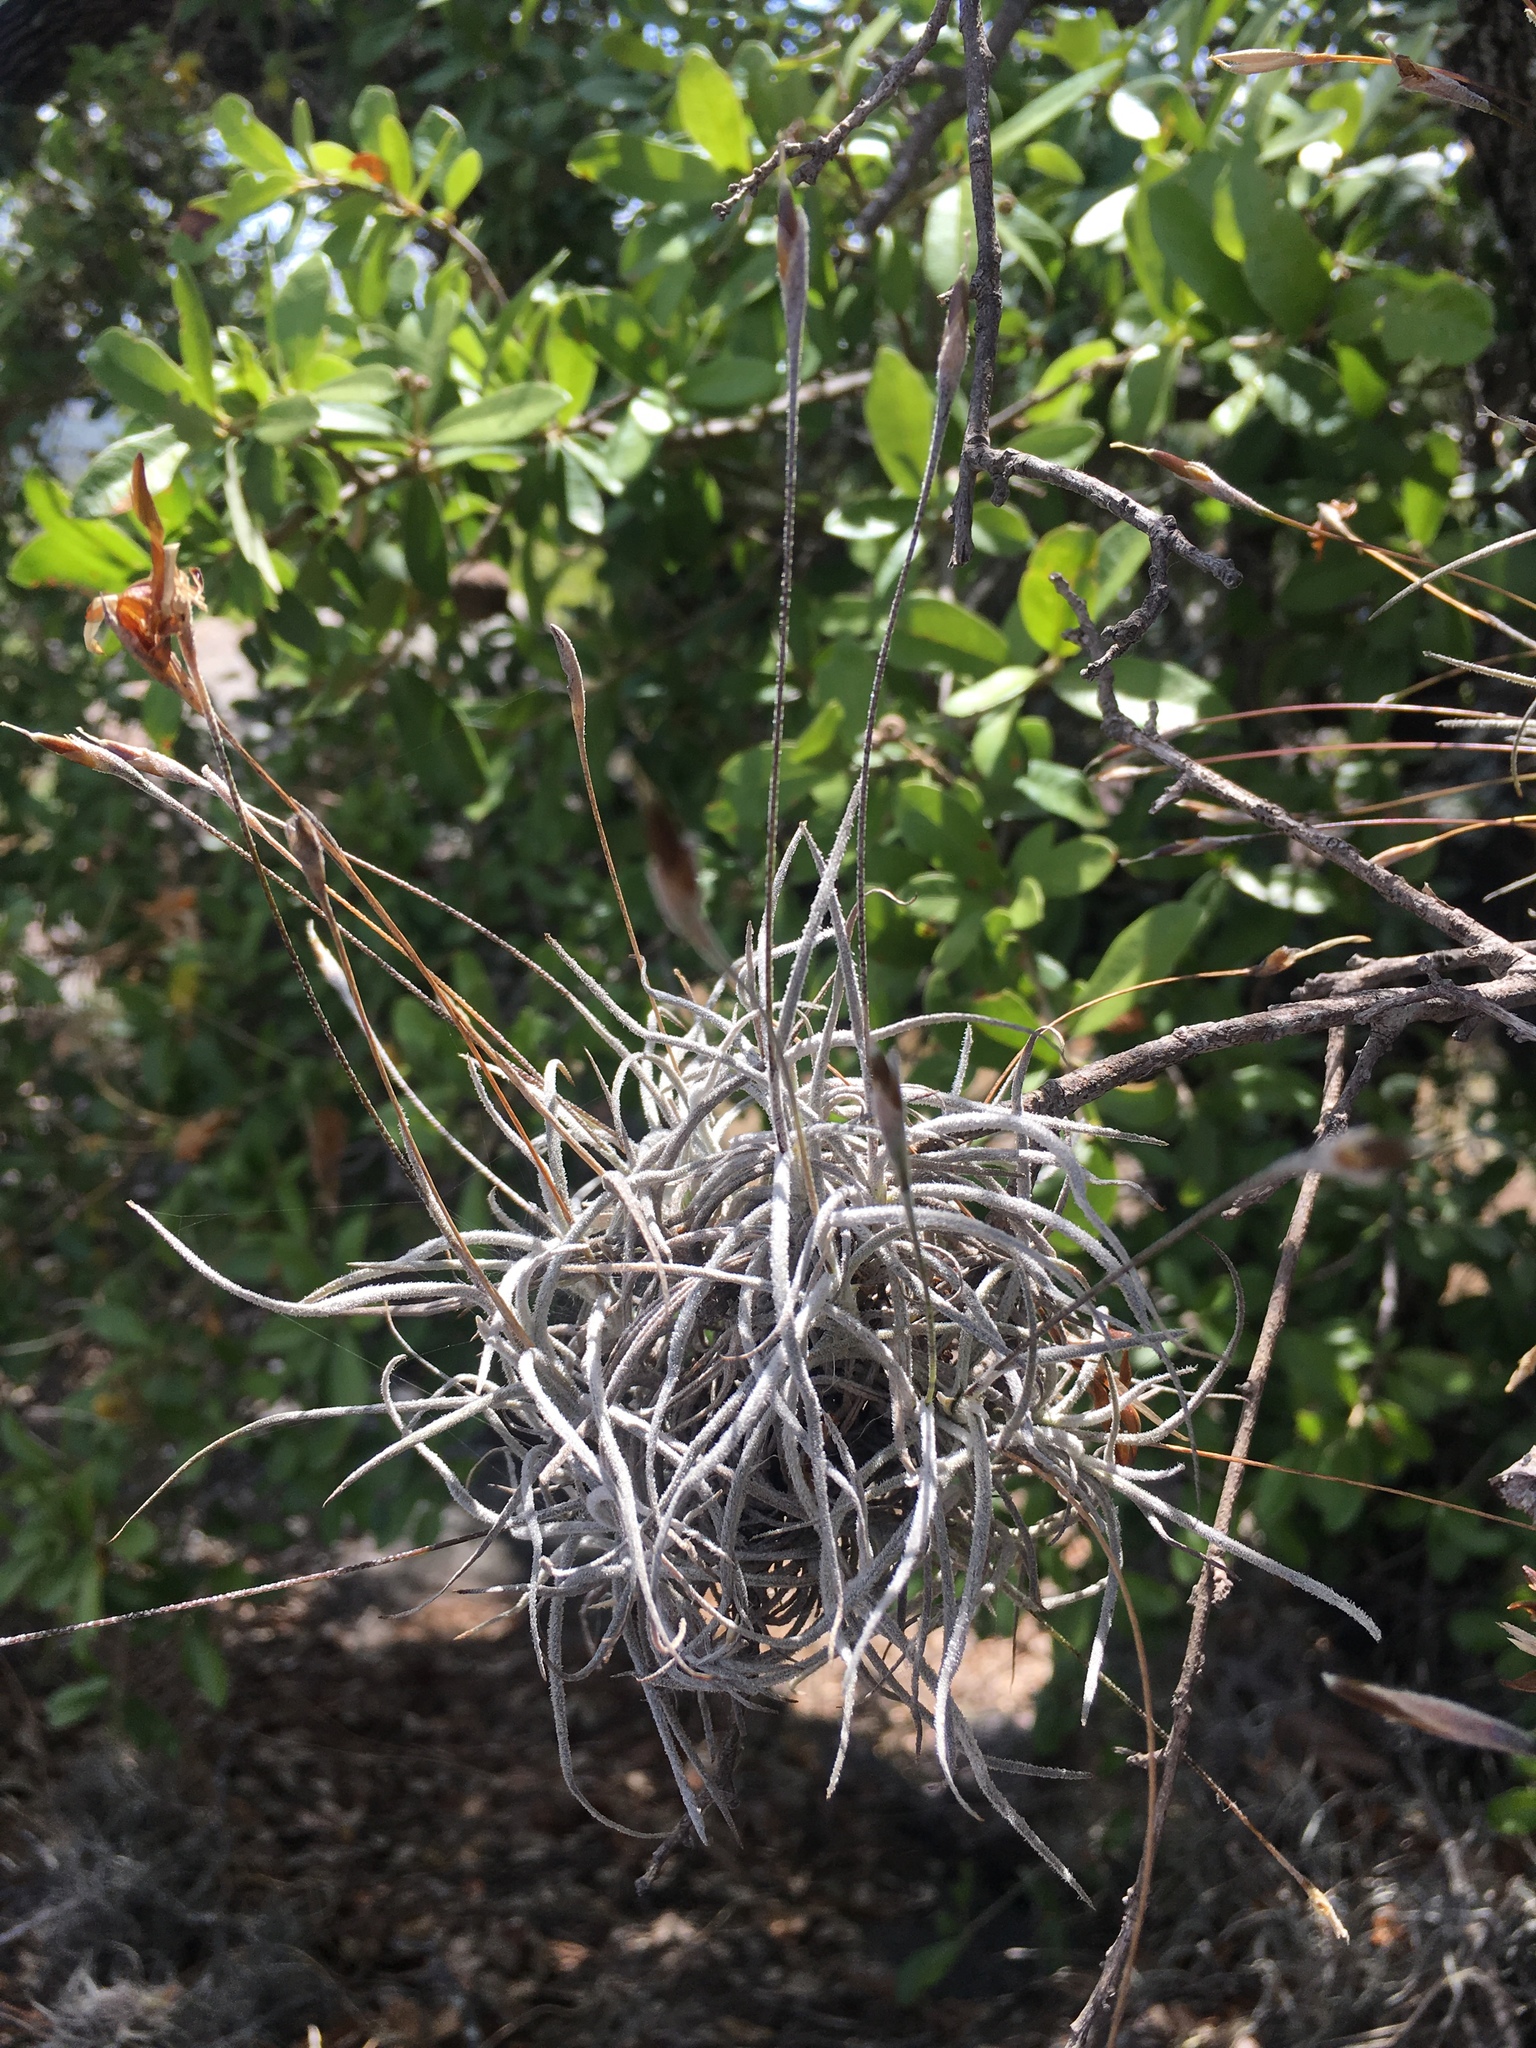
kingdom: Plantae
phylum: Tracheophyta
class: Liliopsida
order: Poales
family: Bromeliaceae
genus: Tillandsia
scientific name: Tillandsia recurvata
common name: Small ballmoss
